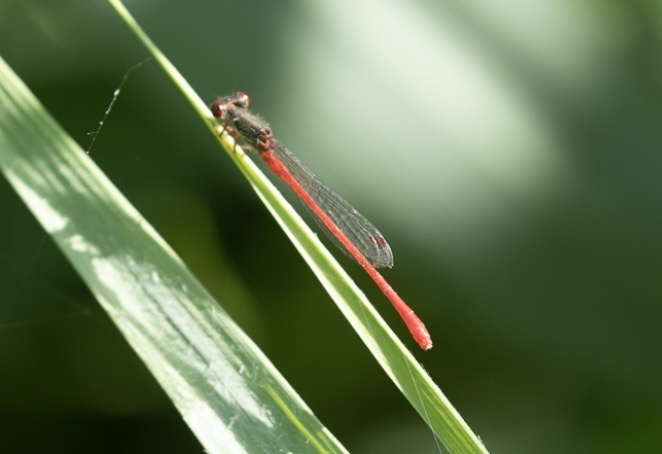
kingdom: Animalia
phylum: Arthropoda
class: Insecta
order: Odonata
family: Coenagrionidae
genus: Ceriagrion
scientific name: Ceriagrion tenellum
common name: Small red damselfly
